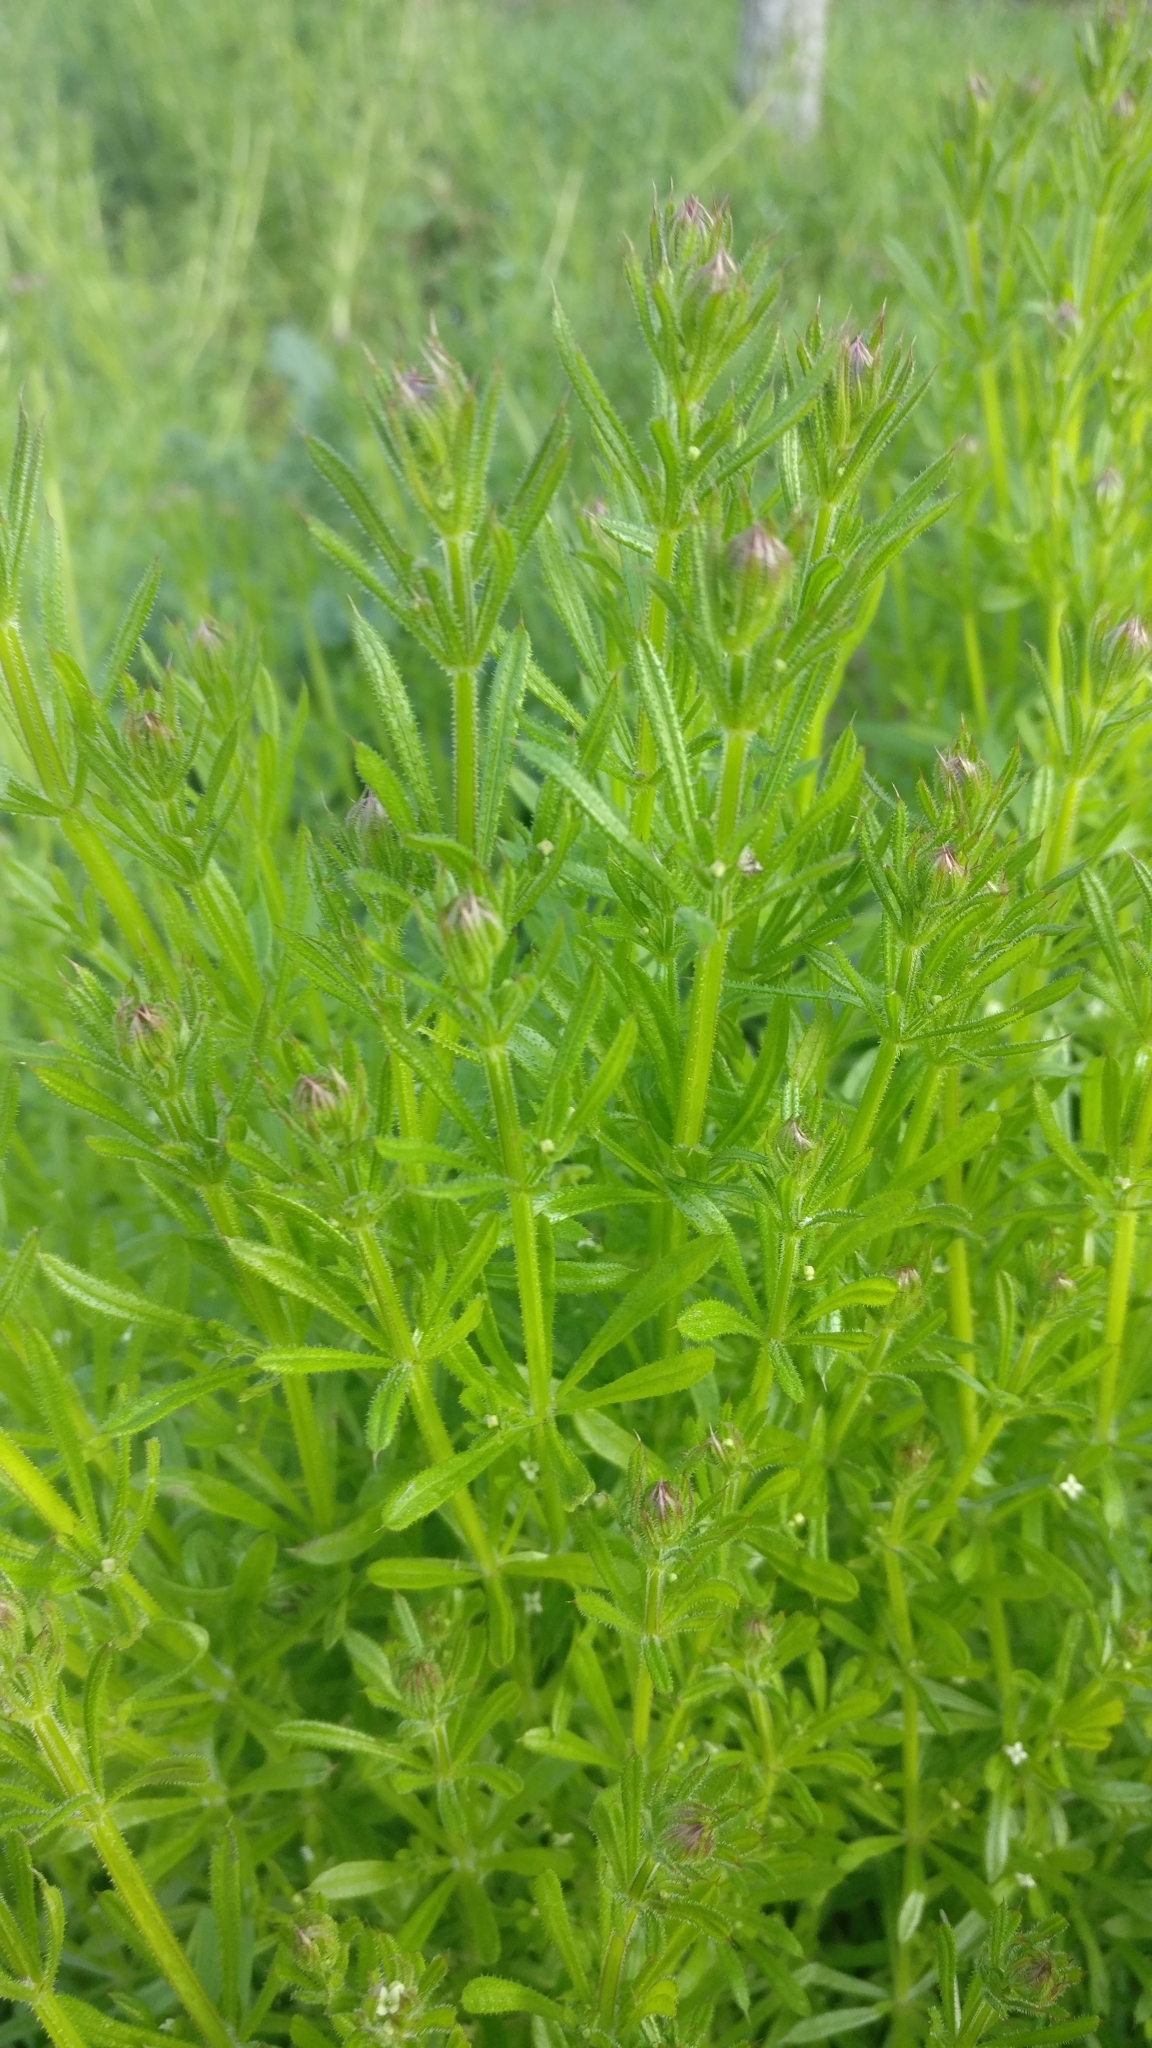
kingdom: Plantae
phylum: Tracheophyta
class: Magnoliopsida
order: Gentianales
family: Rubiaceae
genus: Galium
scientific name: Galium aparine
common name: Cleavers
